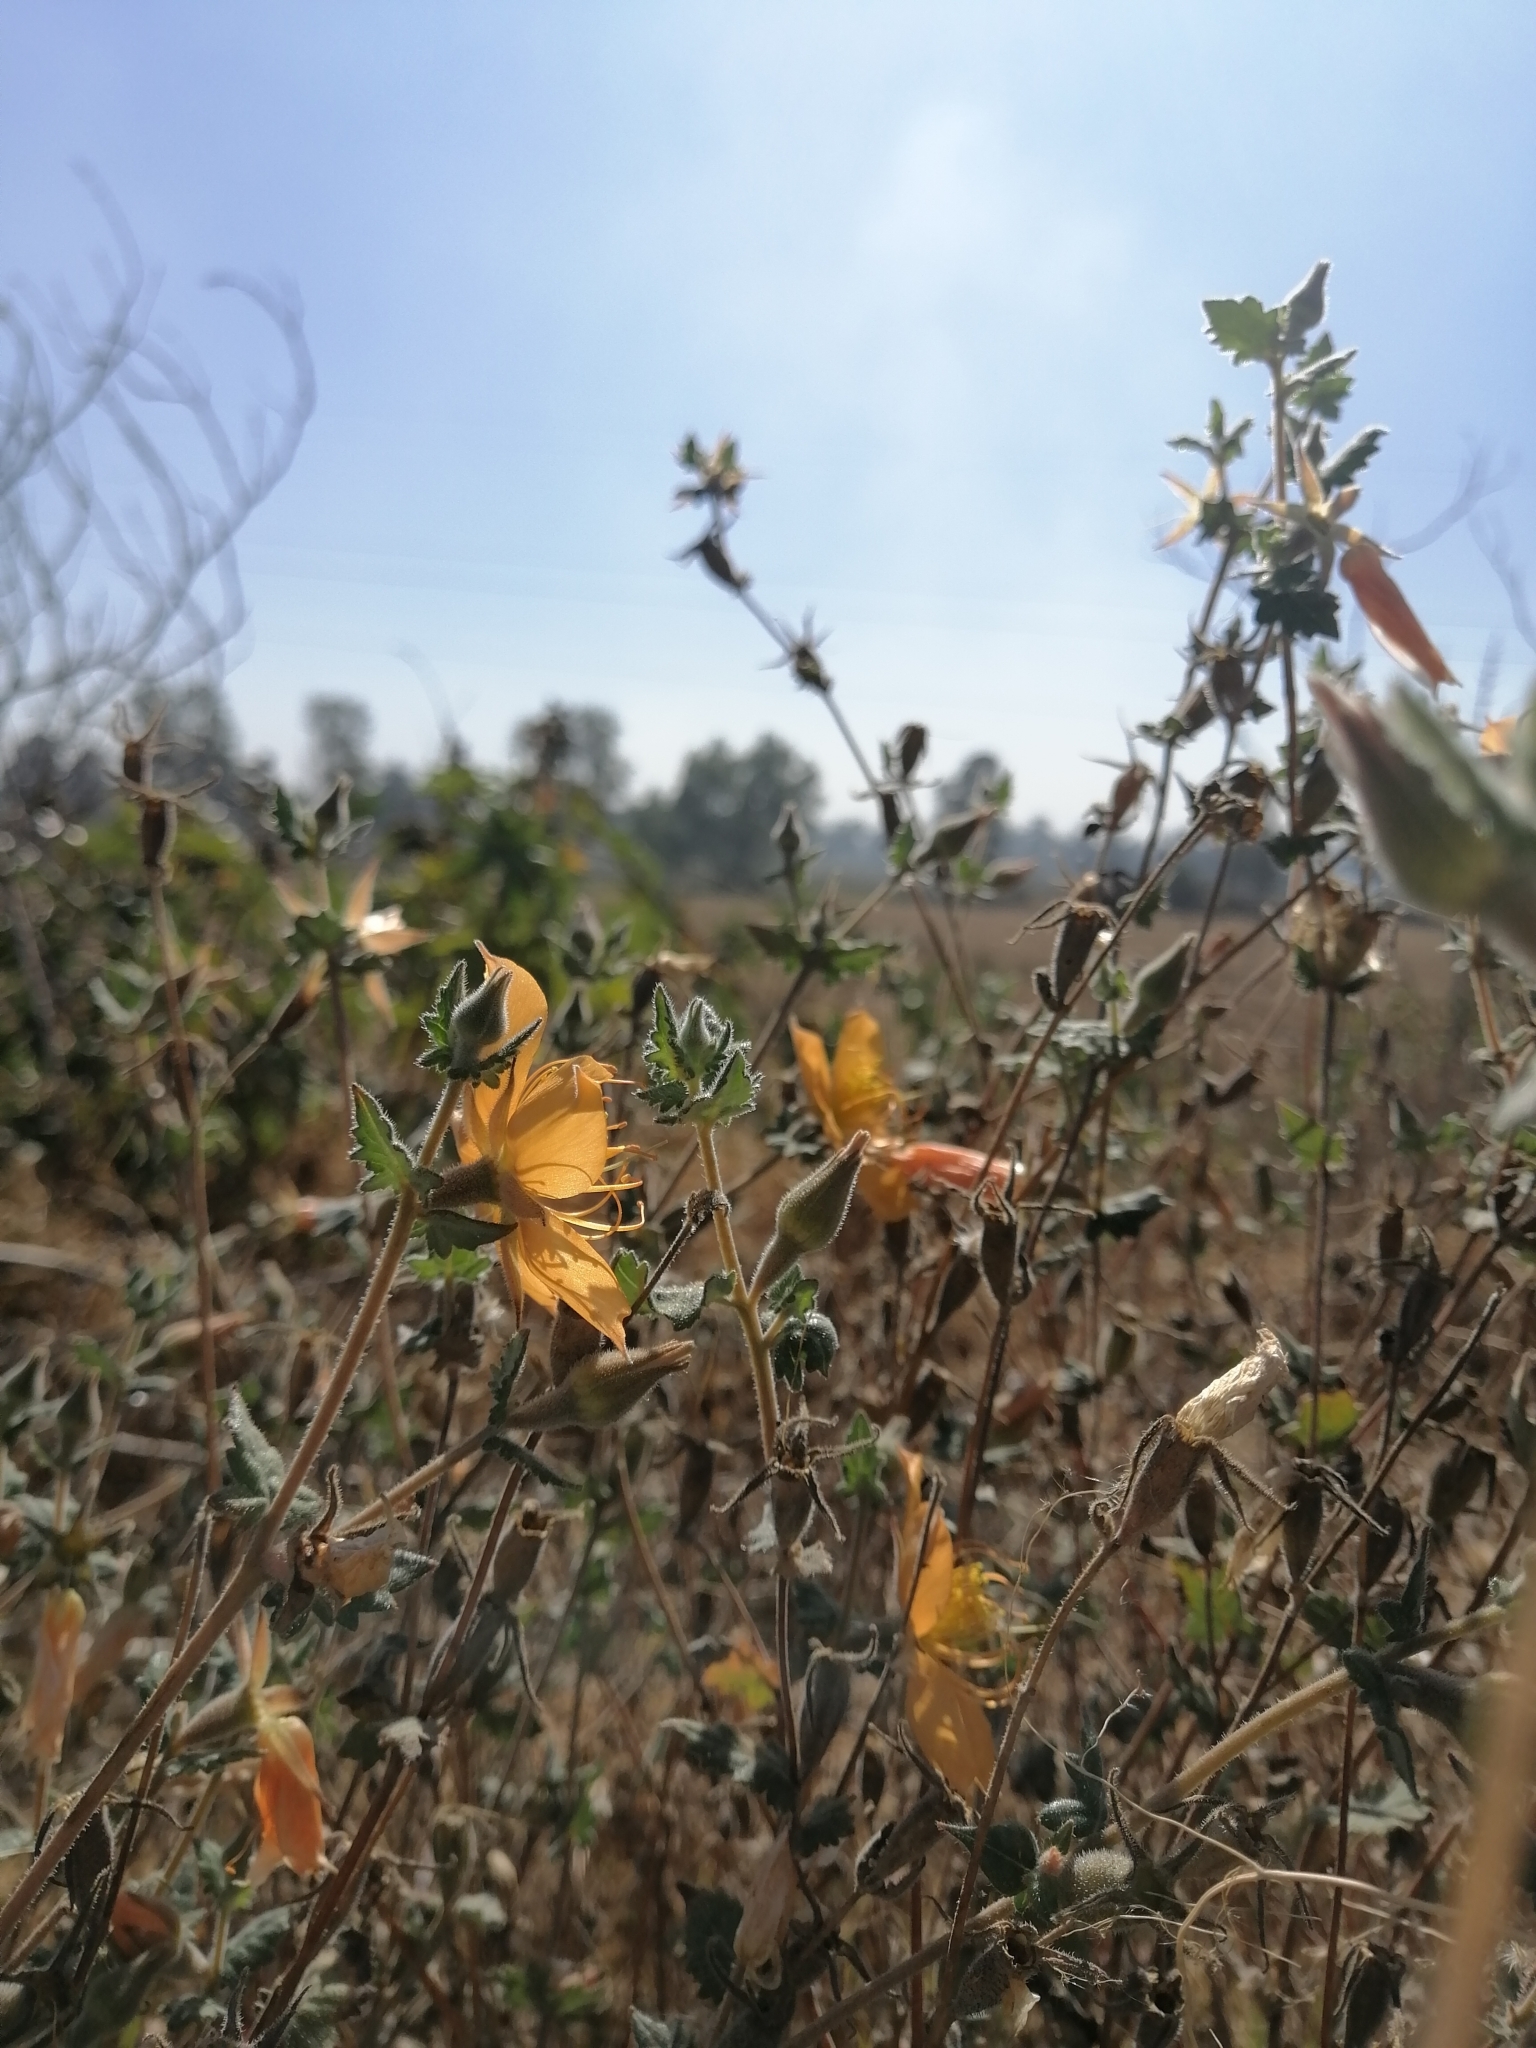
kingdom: Plantae
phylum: Tracheophyta
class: Magnoliopsida
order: Cornales
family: Loasaceae
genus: Mentzelia
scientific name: Mentzelia hispida
